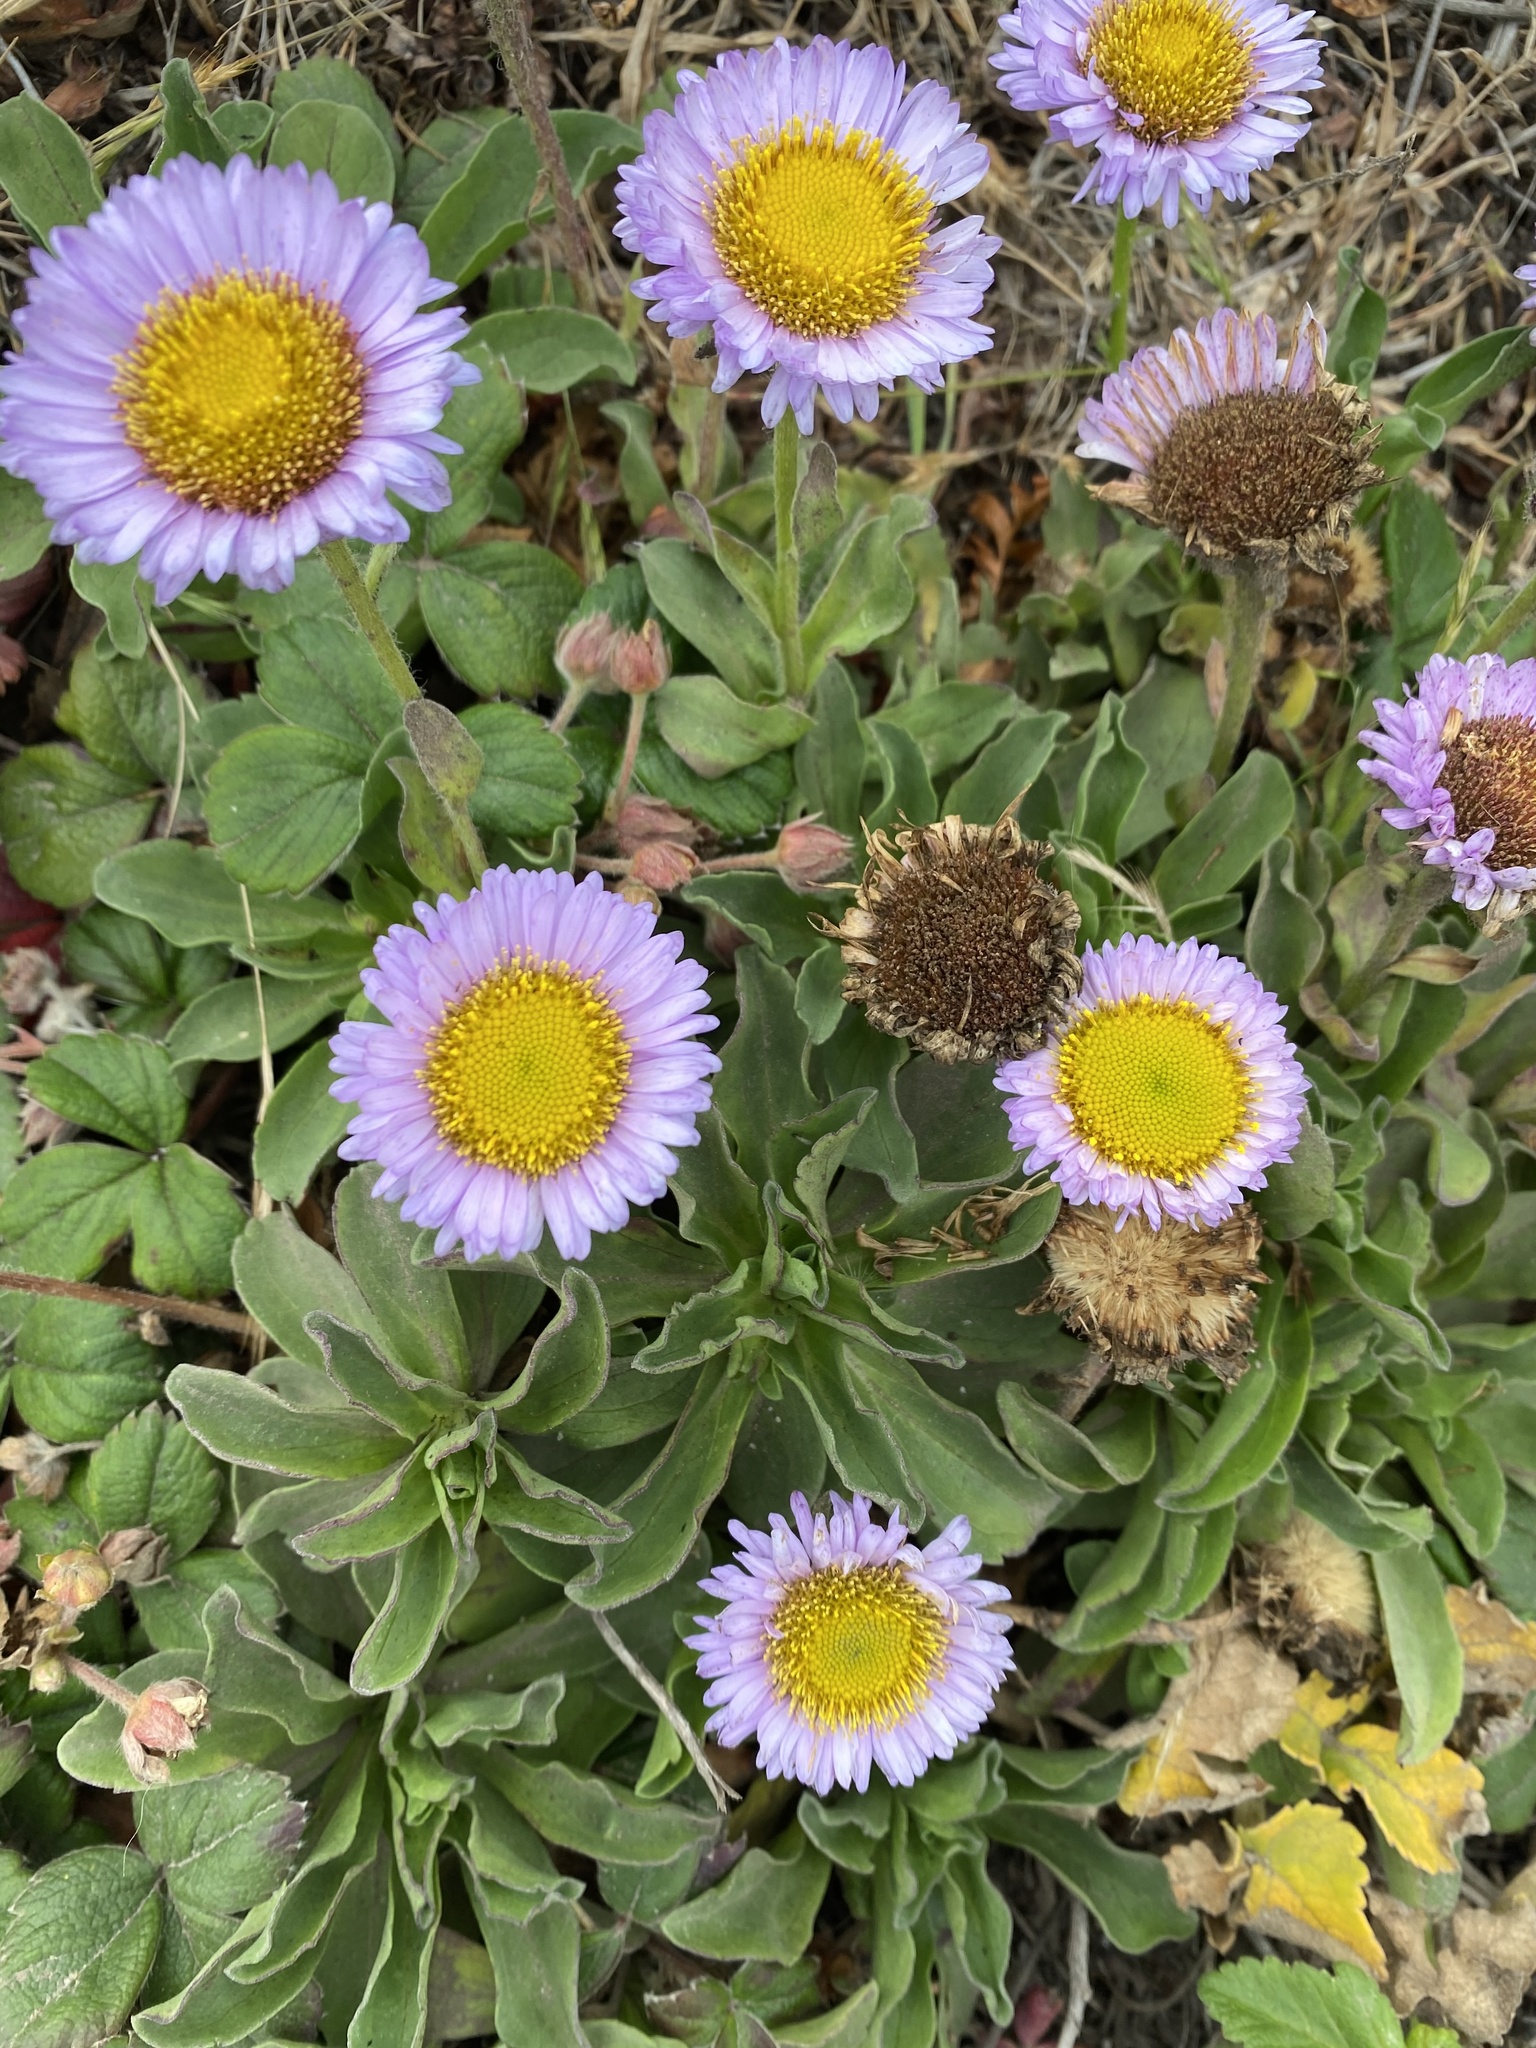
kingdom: Plantae
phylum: Tracheophyta
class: Magnoliopsida
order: Asterales
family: Asteraceae
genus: Erigeron
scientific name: Erigeron glaucus
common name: Seaside daisy
